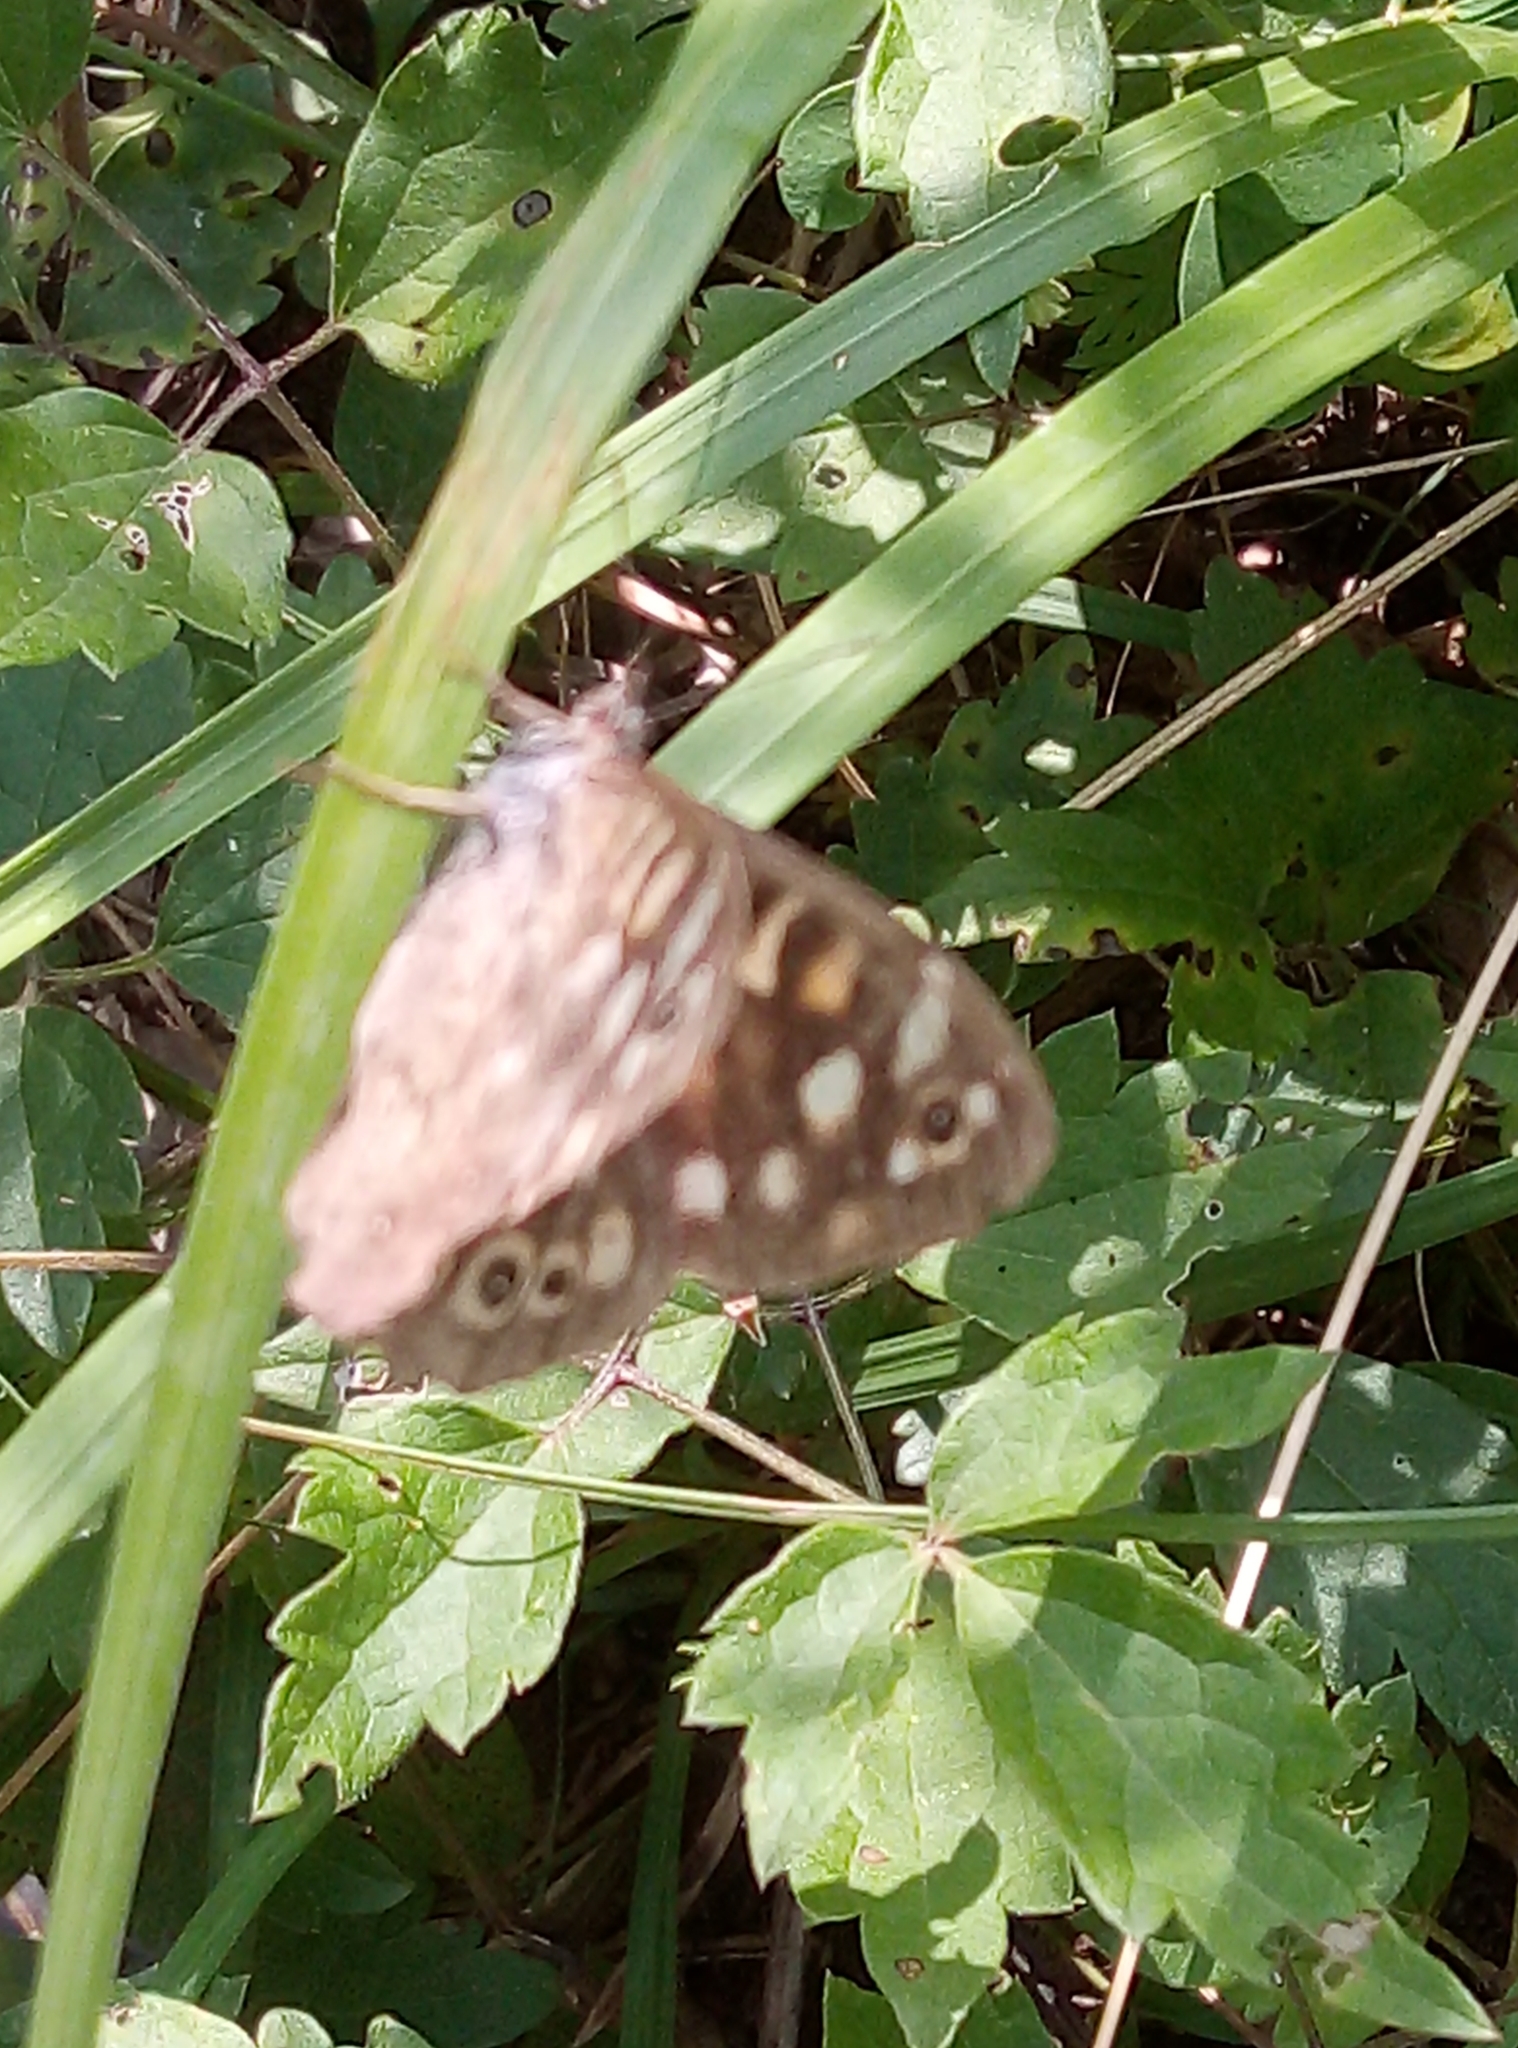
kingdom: Animalia
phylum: Arthropoda
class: Insecta
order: Lepidoptera
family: Nymphalidae
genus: Pararge
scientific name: Pararge aegeria
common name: Speckled wood
